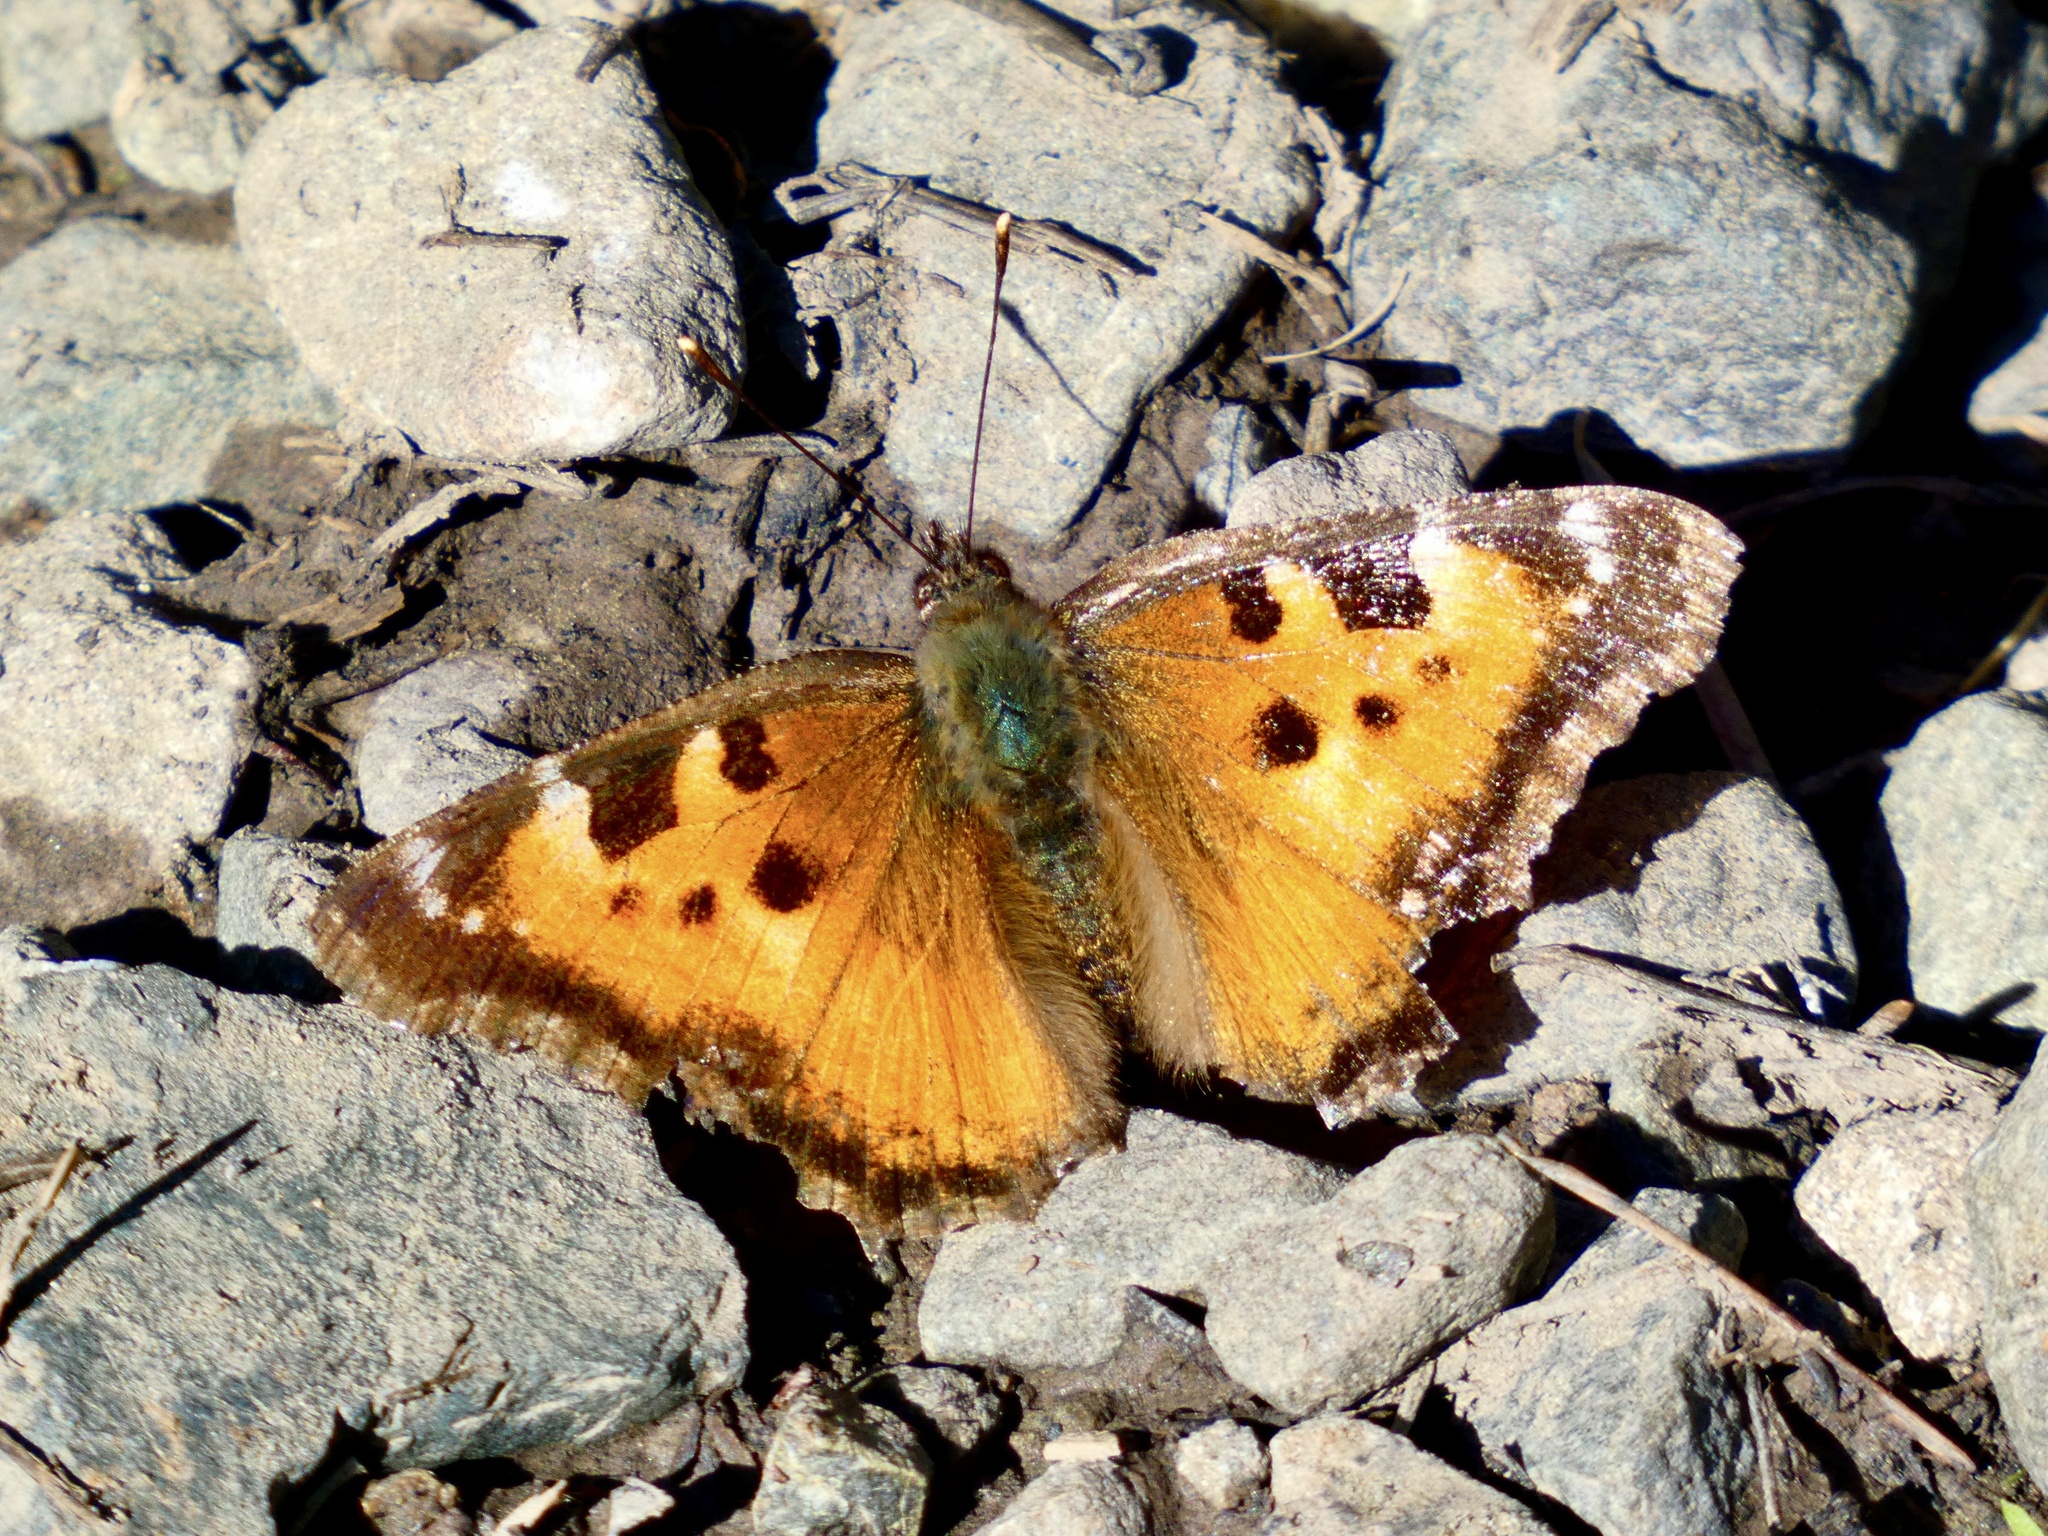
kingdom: Animalia
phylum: Arthropoda
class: Insecta
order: Lepidoptera
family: Nymphalidae
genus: Nymphalis
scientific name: Nymphalis californica
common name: California tortoiseshell
